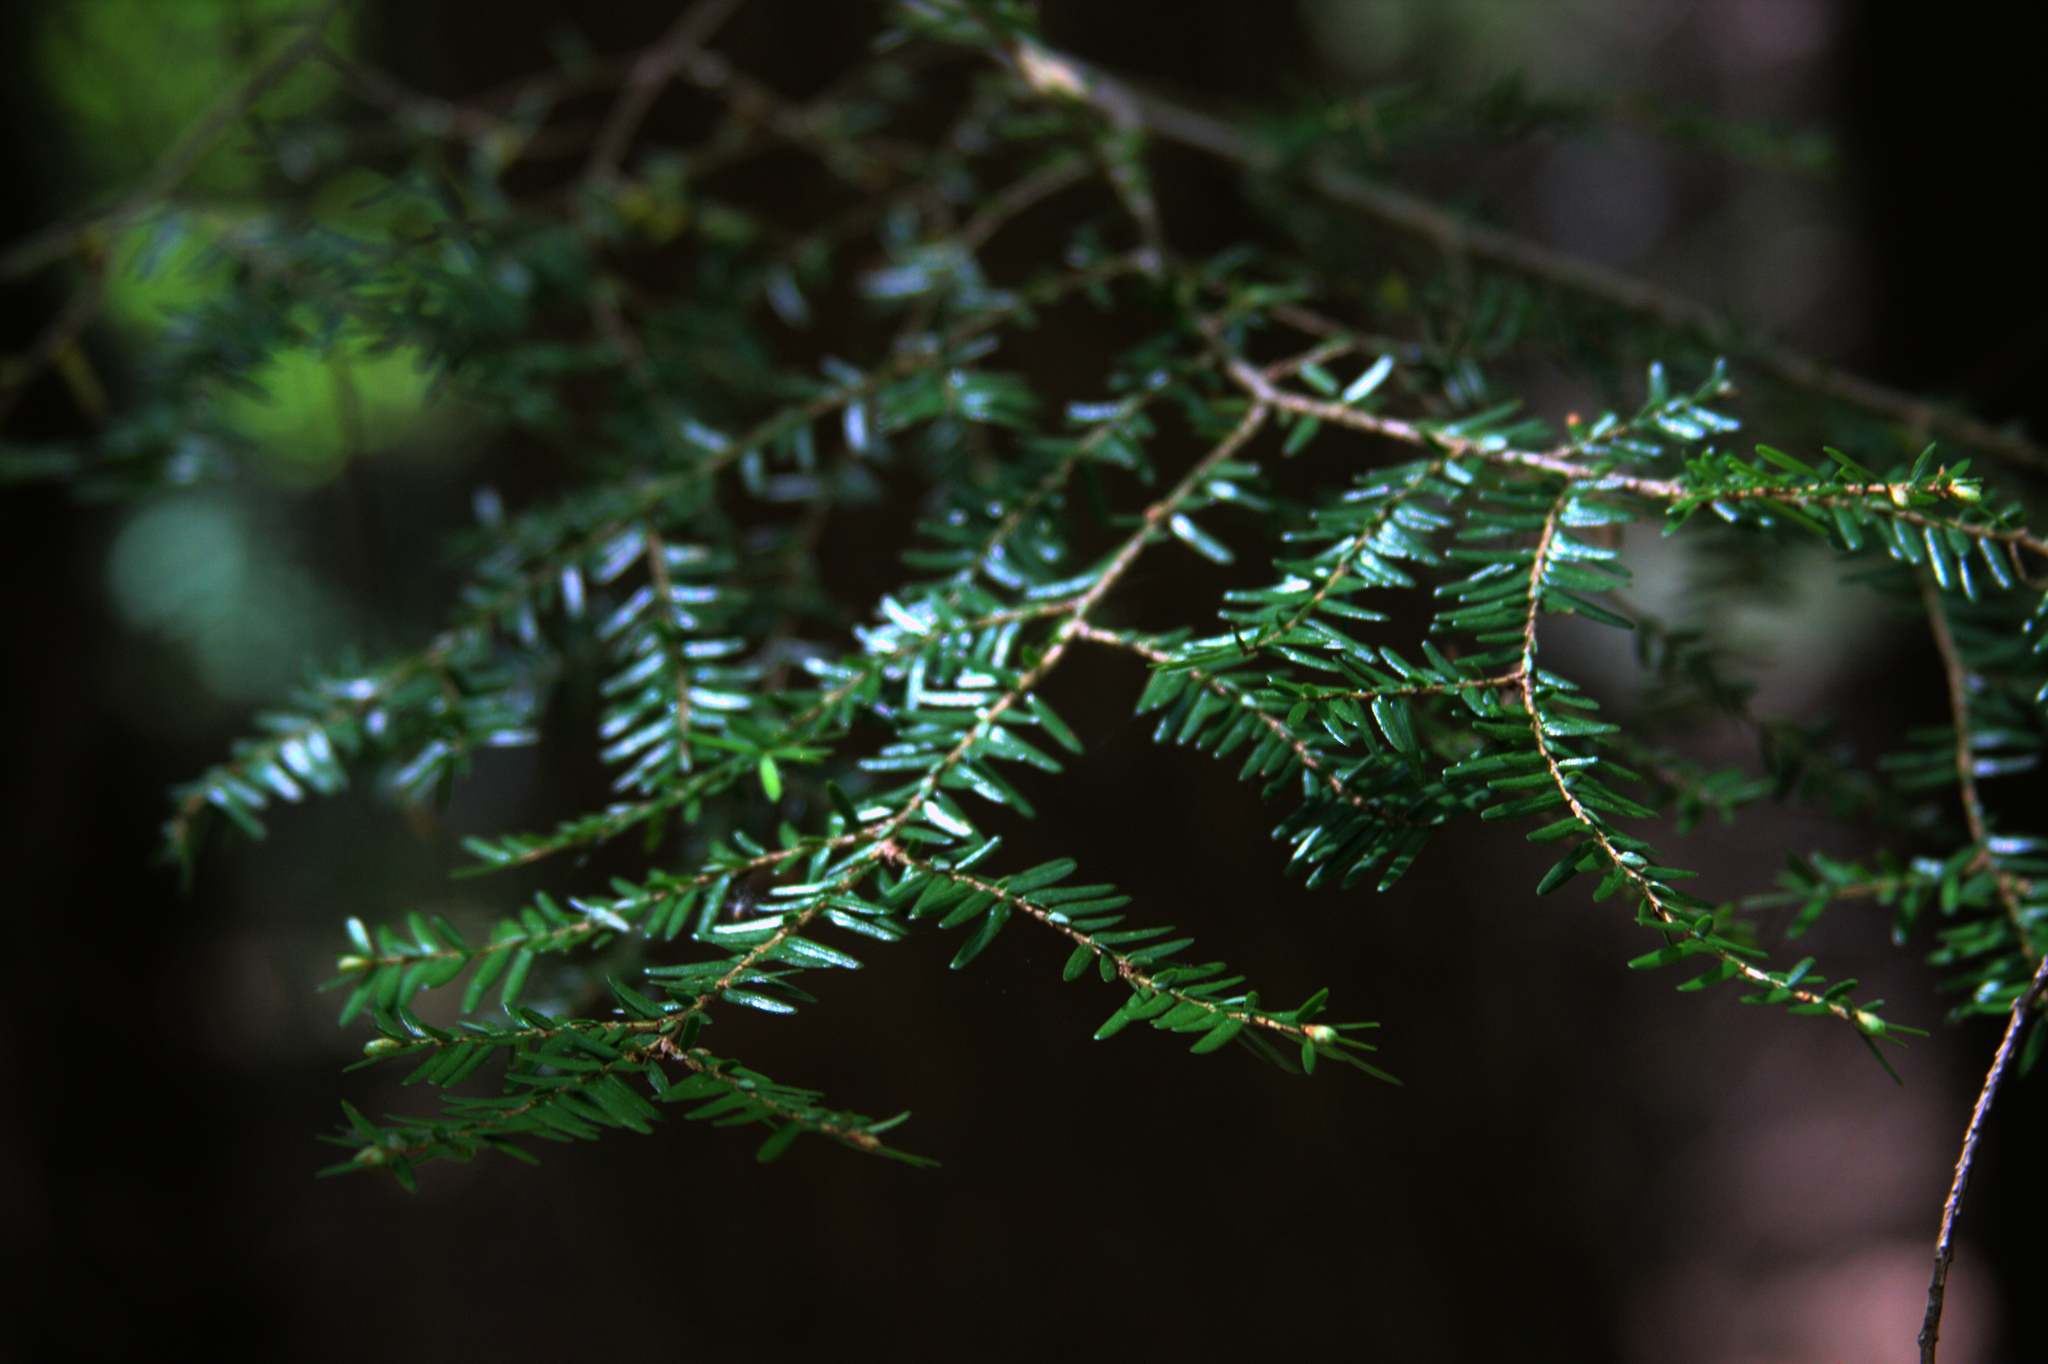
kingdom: Plantae
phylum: Tracheophyta
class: Pinopsida
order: Pinales
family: Pinaceae
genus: Tsuga
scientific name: Tsuga canadensis
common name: Eastern hemlock
